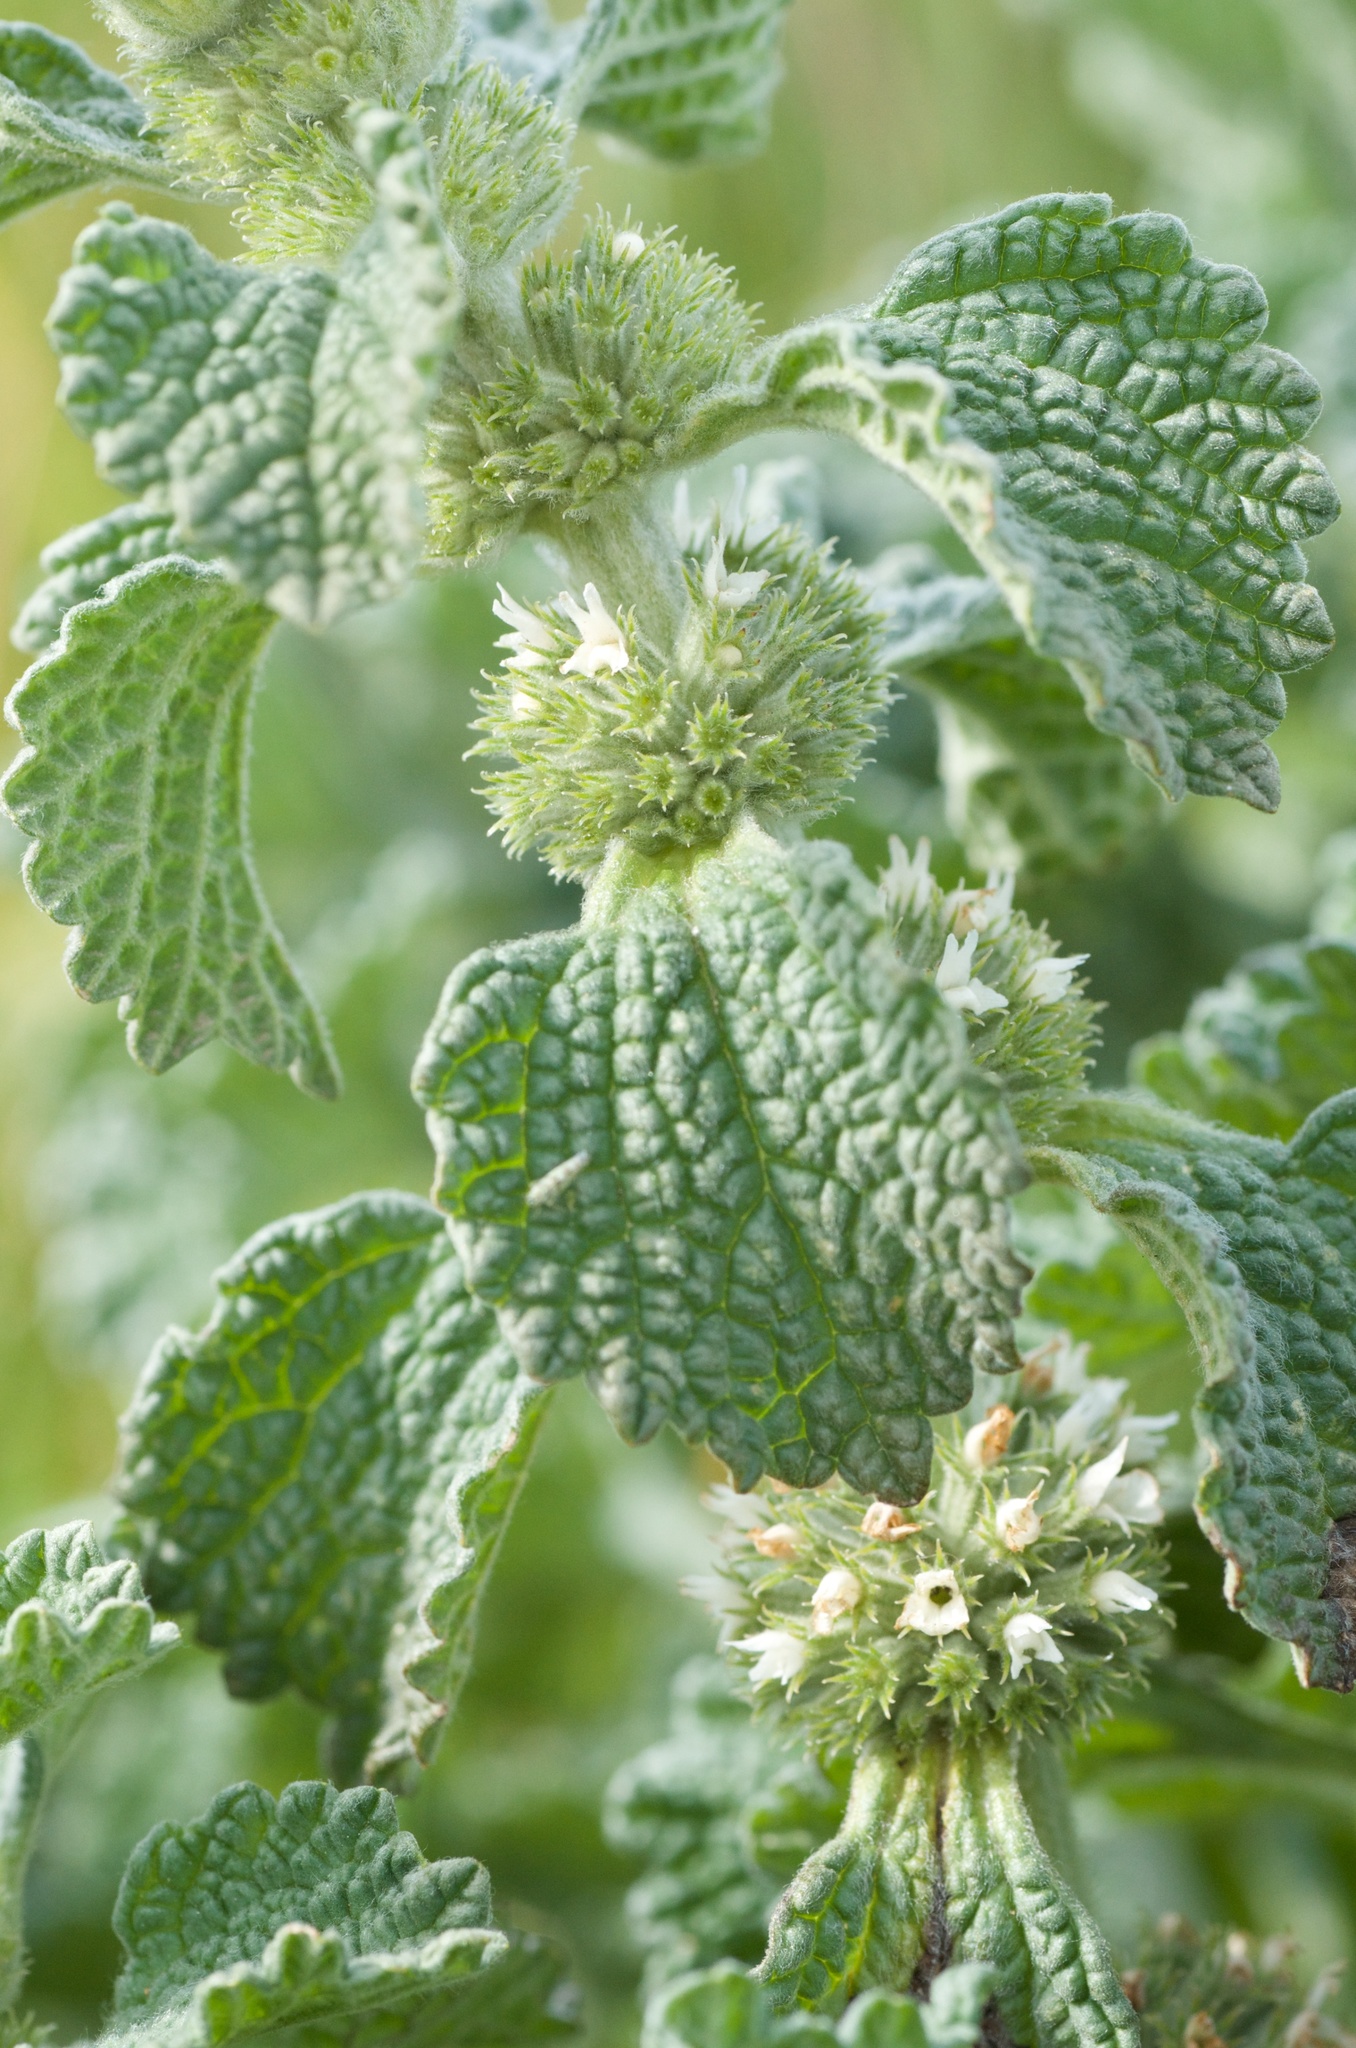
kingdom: Plantae
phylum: Tracheophyta
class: Magnoliopsida
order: Lamiales
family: Lamiaceae
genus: Marrubium
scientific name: Marrubium vulgare
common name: Horehound
